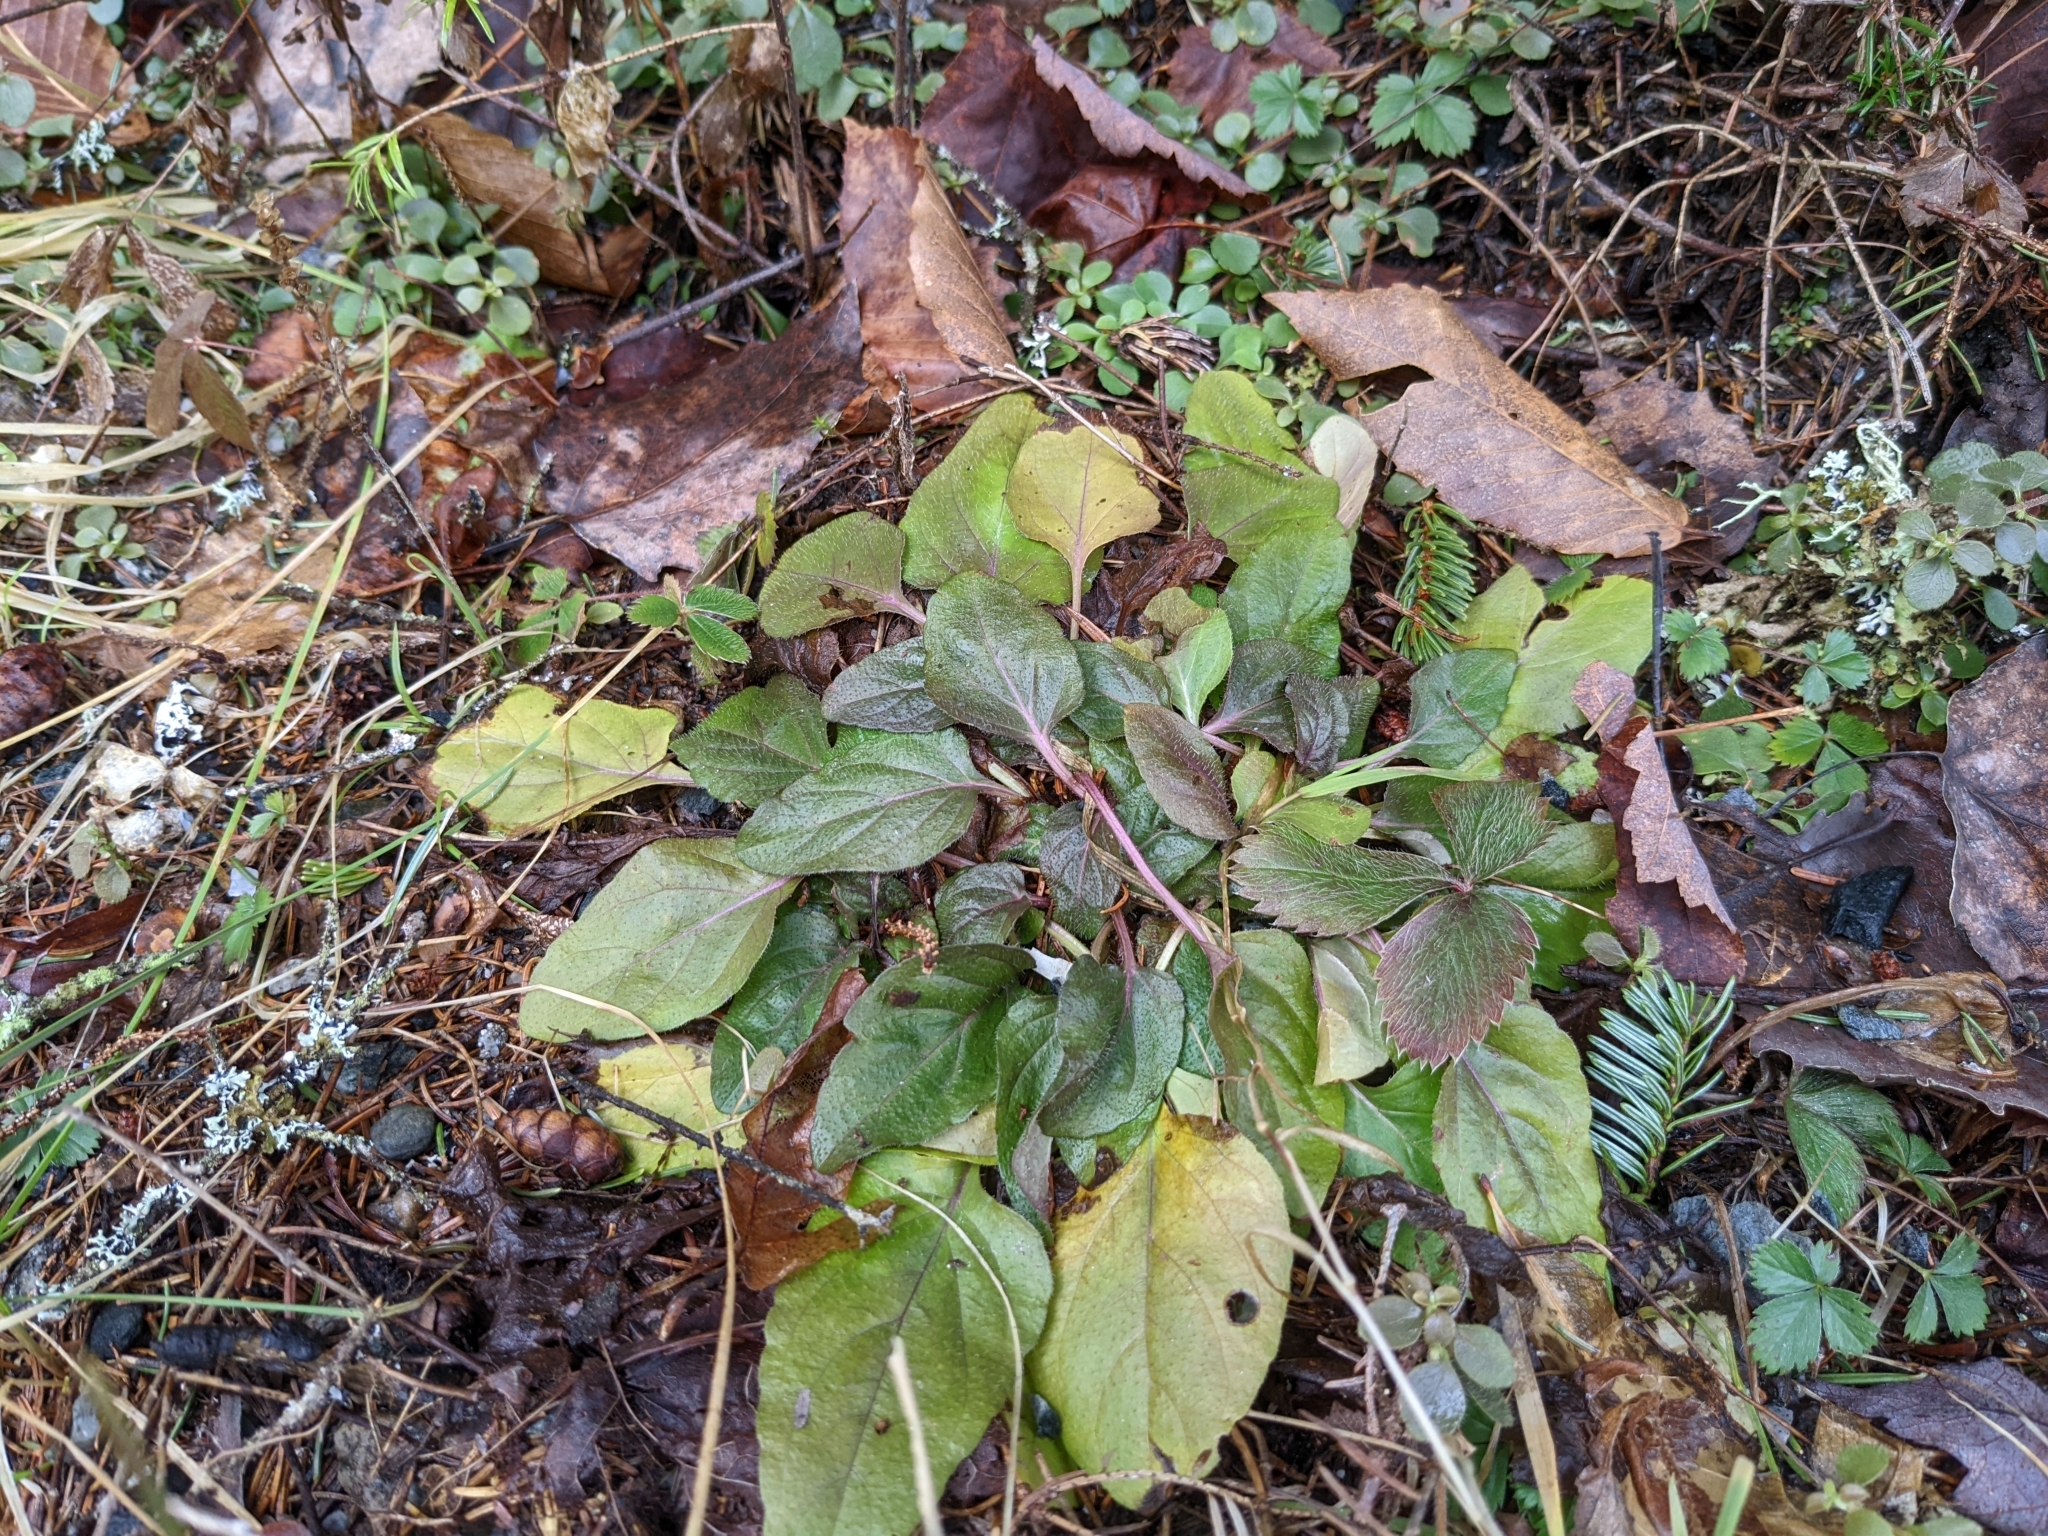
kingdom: Plantae
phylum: Tracheophyta
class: Magnoliopsida
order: Lamiales
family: Lamiaceae
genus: Prunella
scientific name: Prunella vulgaris
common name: Heal-all
